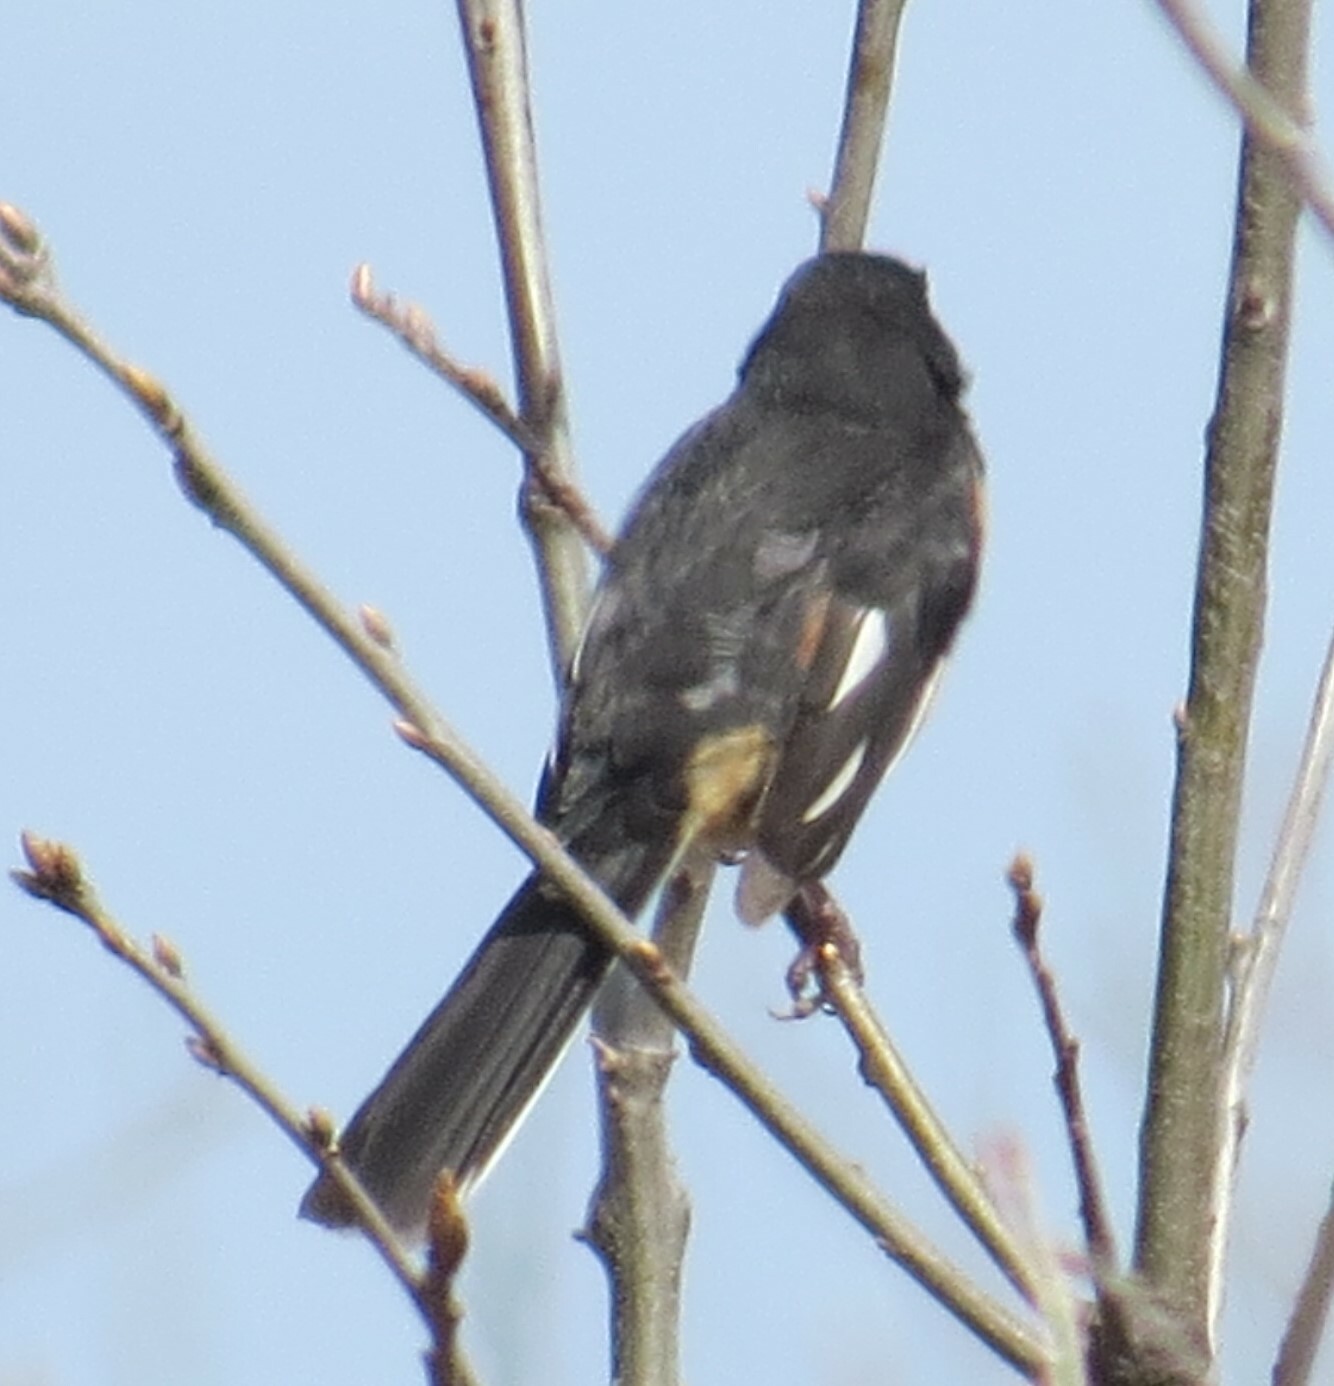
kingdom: Animalia
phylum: Chordata
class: Aves
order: Passeriformes
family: Passerellidae
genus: Pipilo
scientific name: Pipilo erythrophthalmus
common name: Eastern towhee
